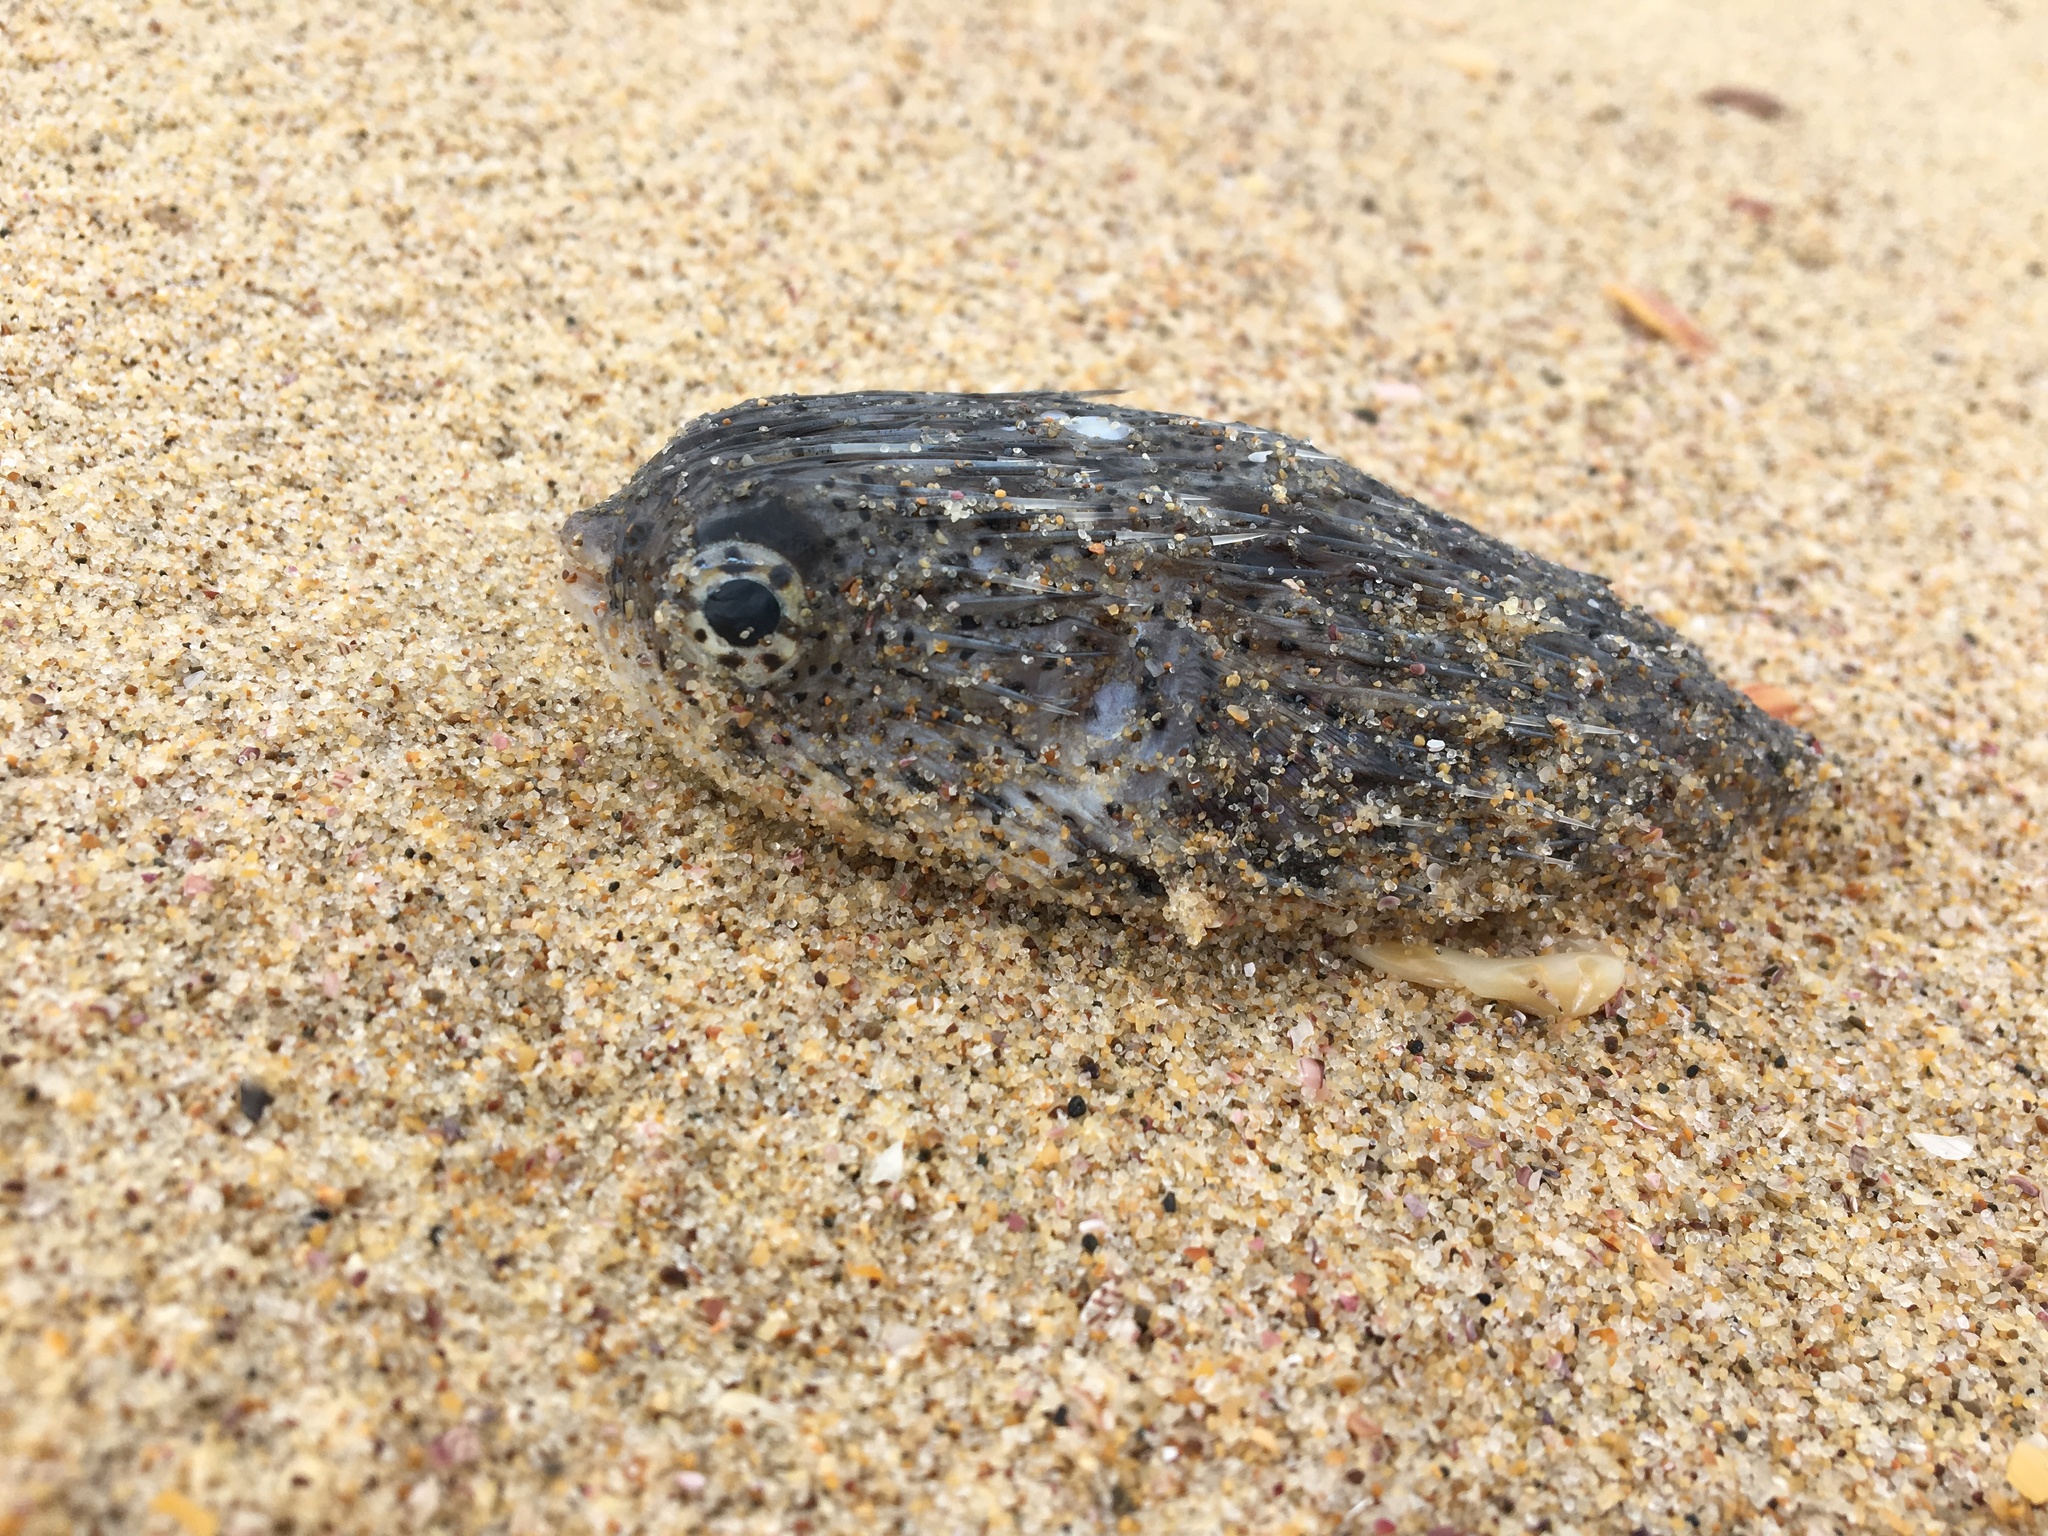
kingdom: Animalia
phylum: Chordata
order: Tetraodontiformes
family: Diodontidae
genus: Diodon
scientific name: Diodon holocanthus
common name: Balloonfish
